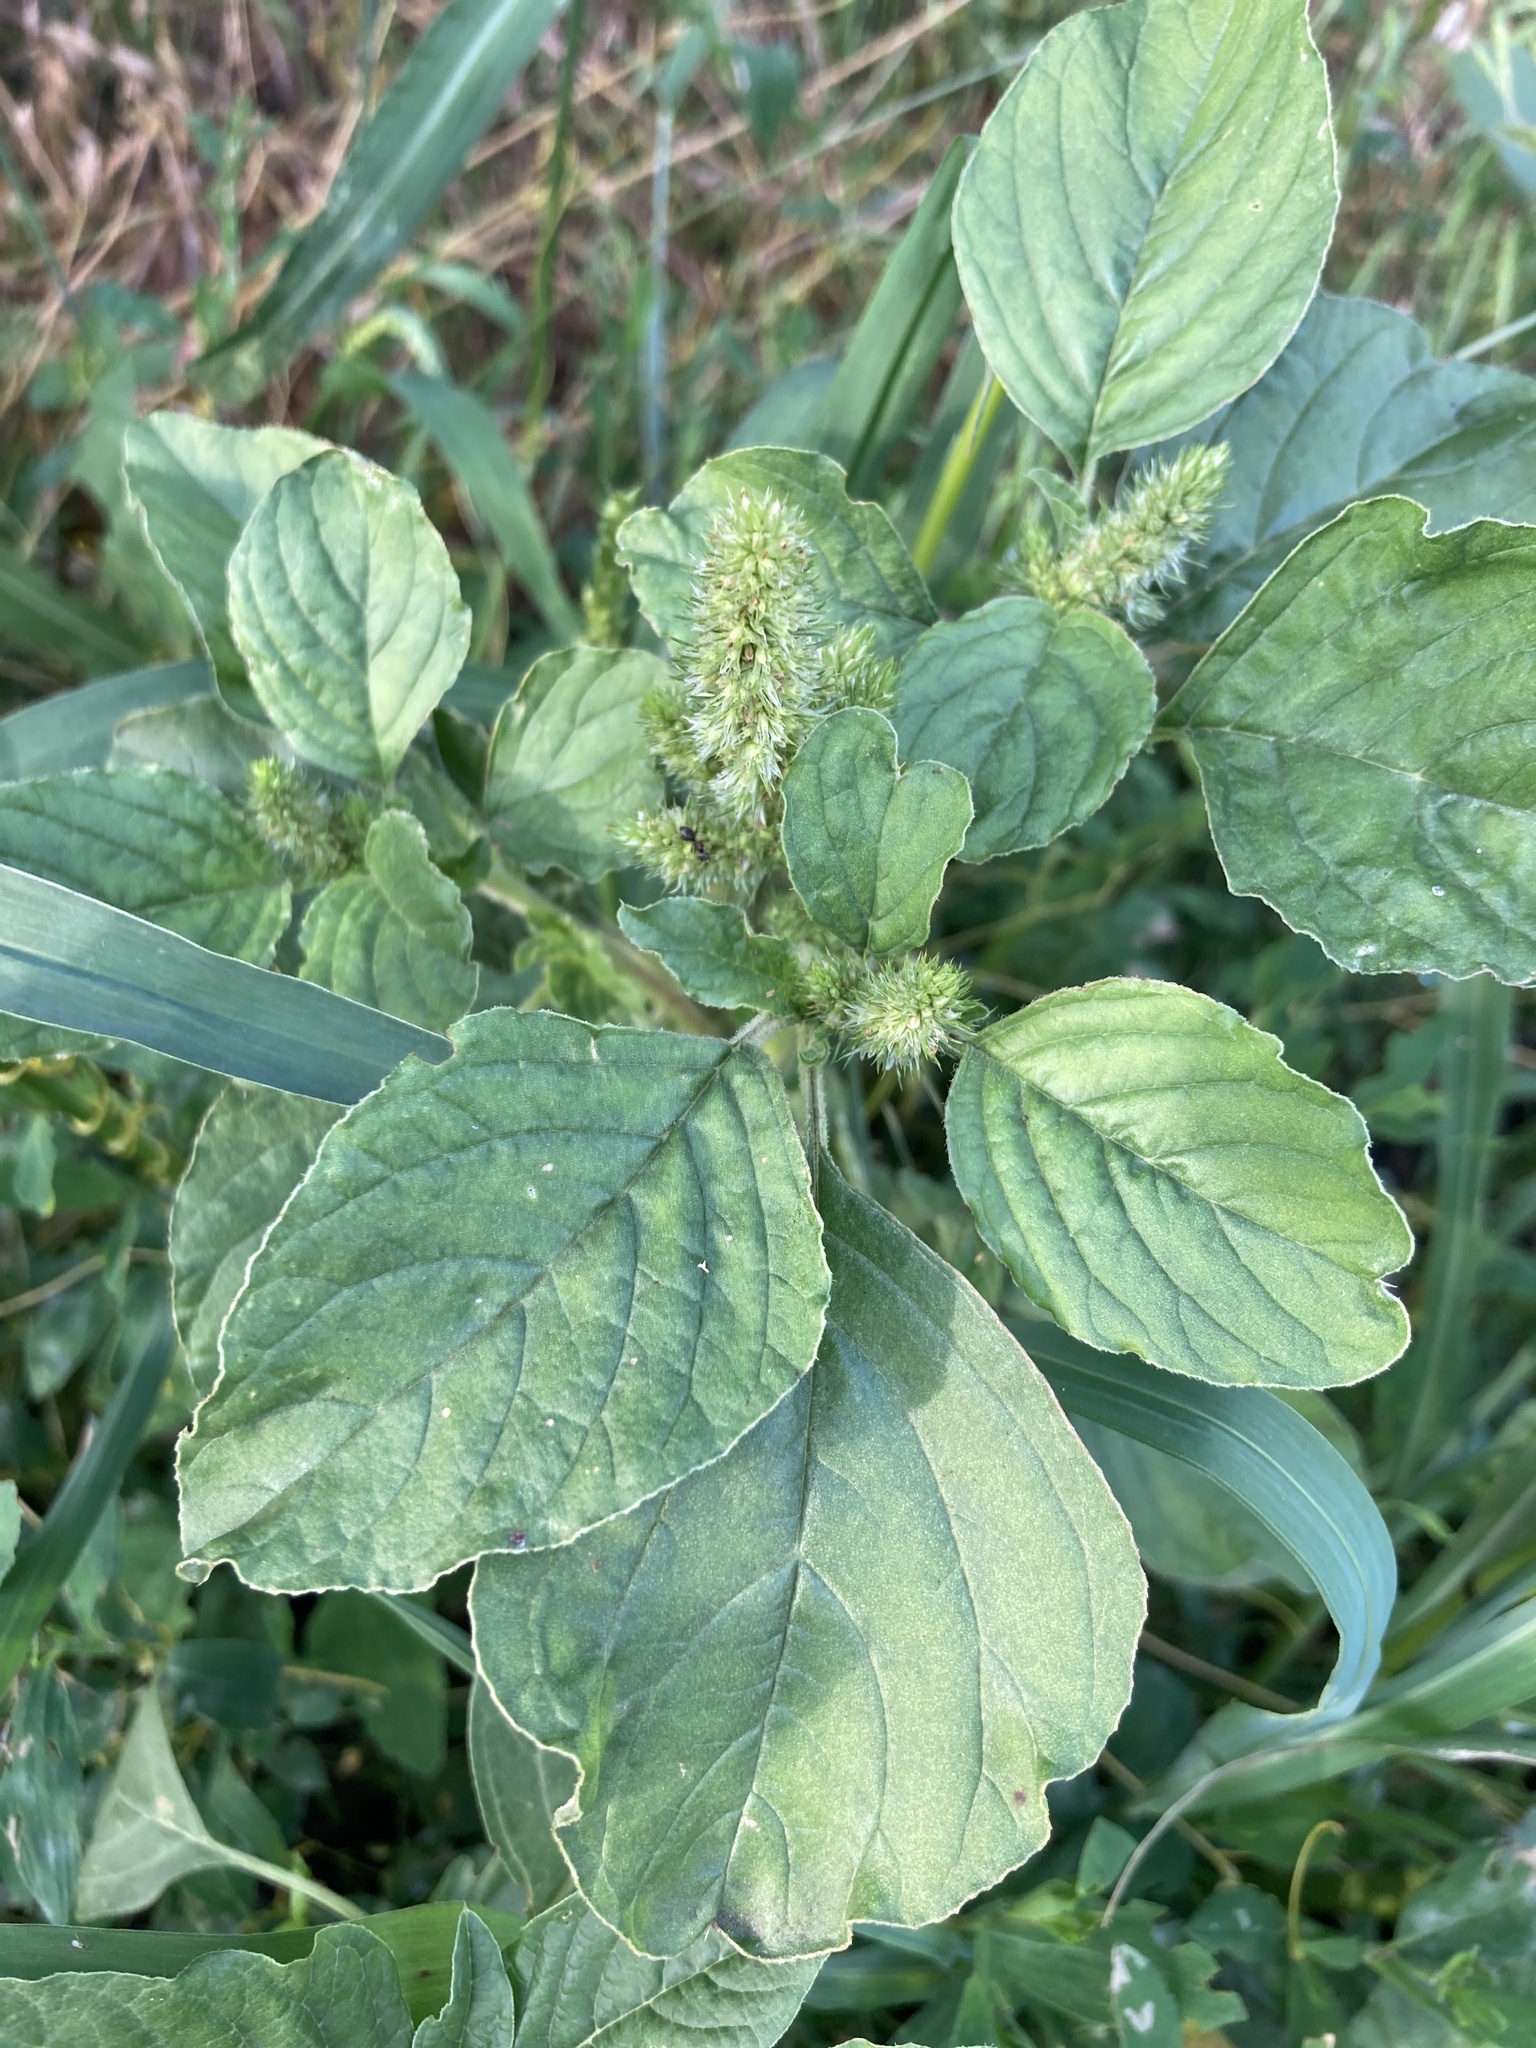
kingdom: Plantae
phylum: Tracheophyta
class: Magnoliopsida
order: Caryophyllales
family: Amaranthaceae
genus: Amaranthus
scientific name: Amaranthus retroflexus
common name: Redroot amaranth
